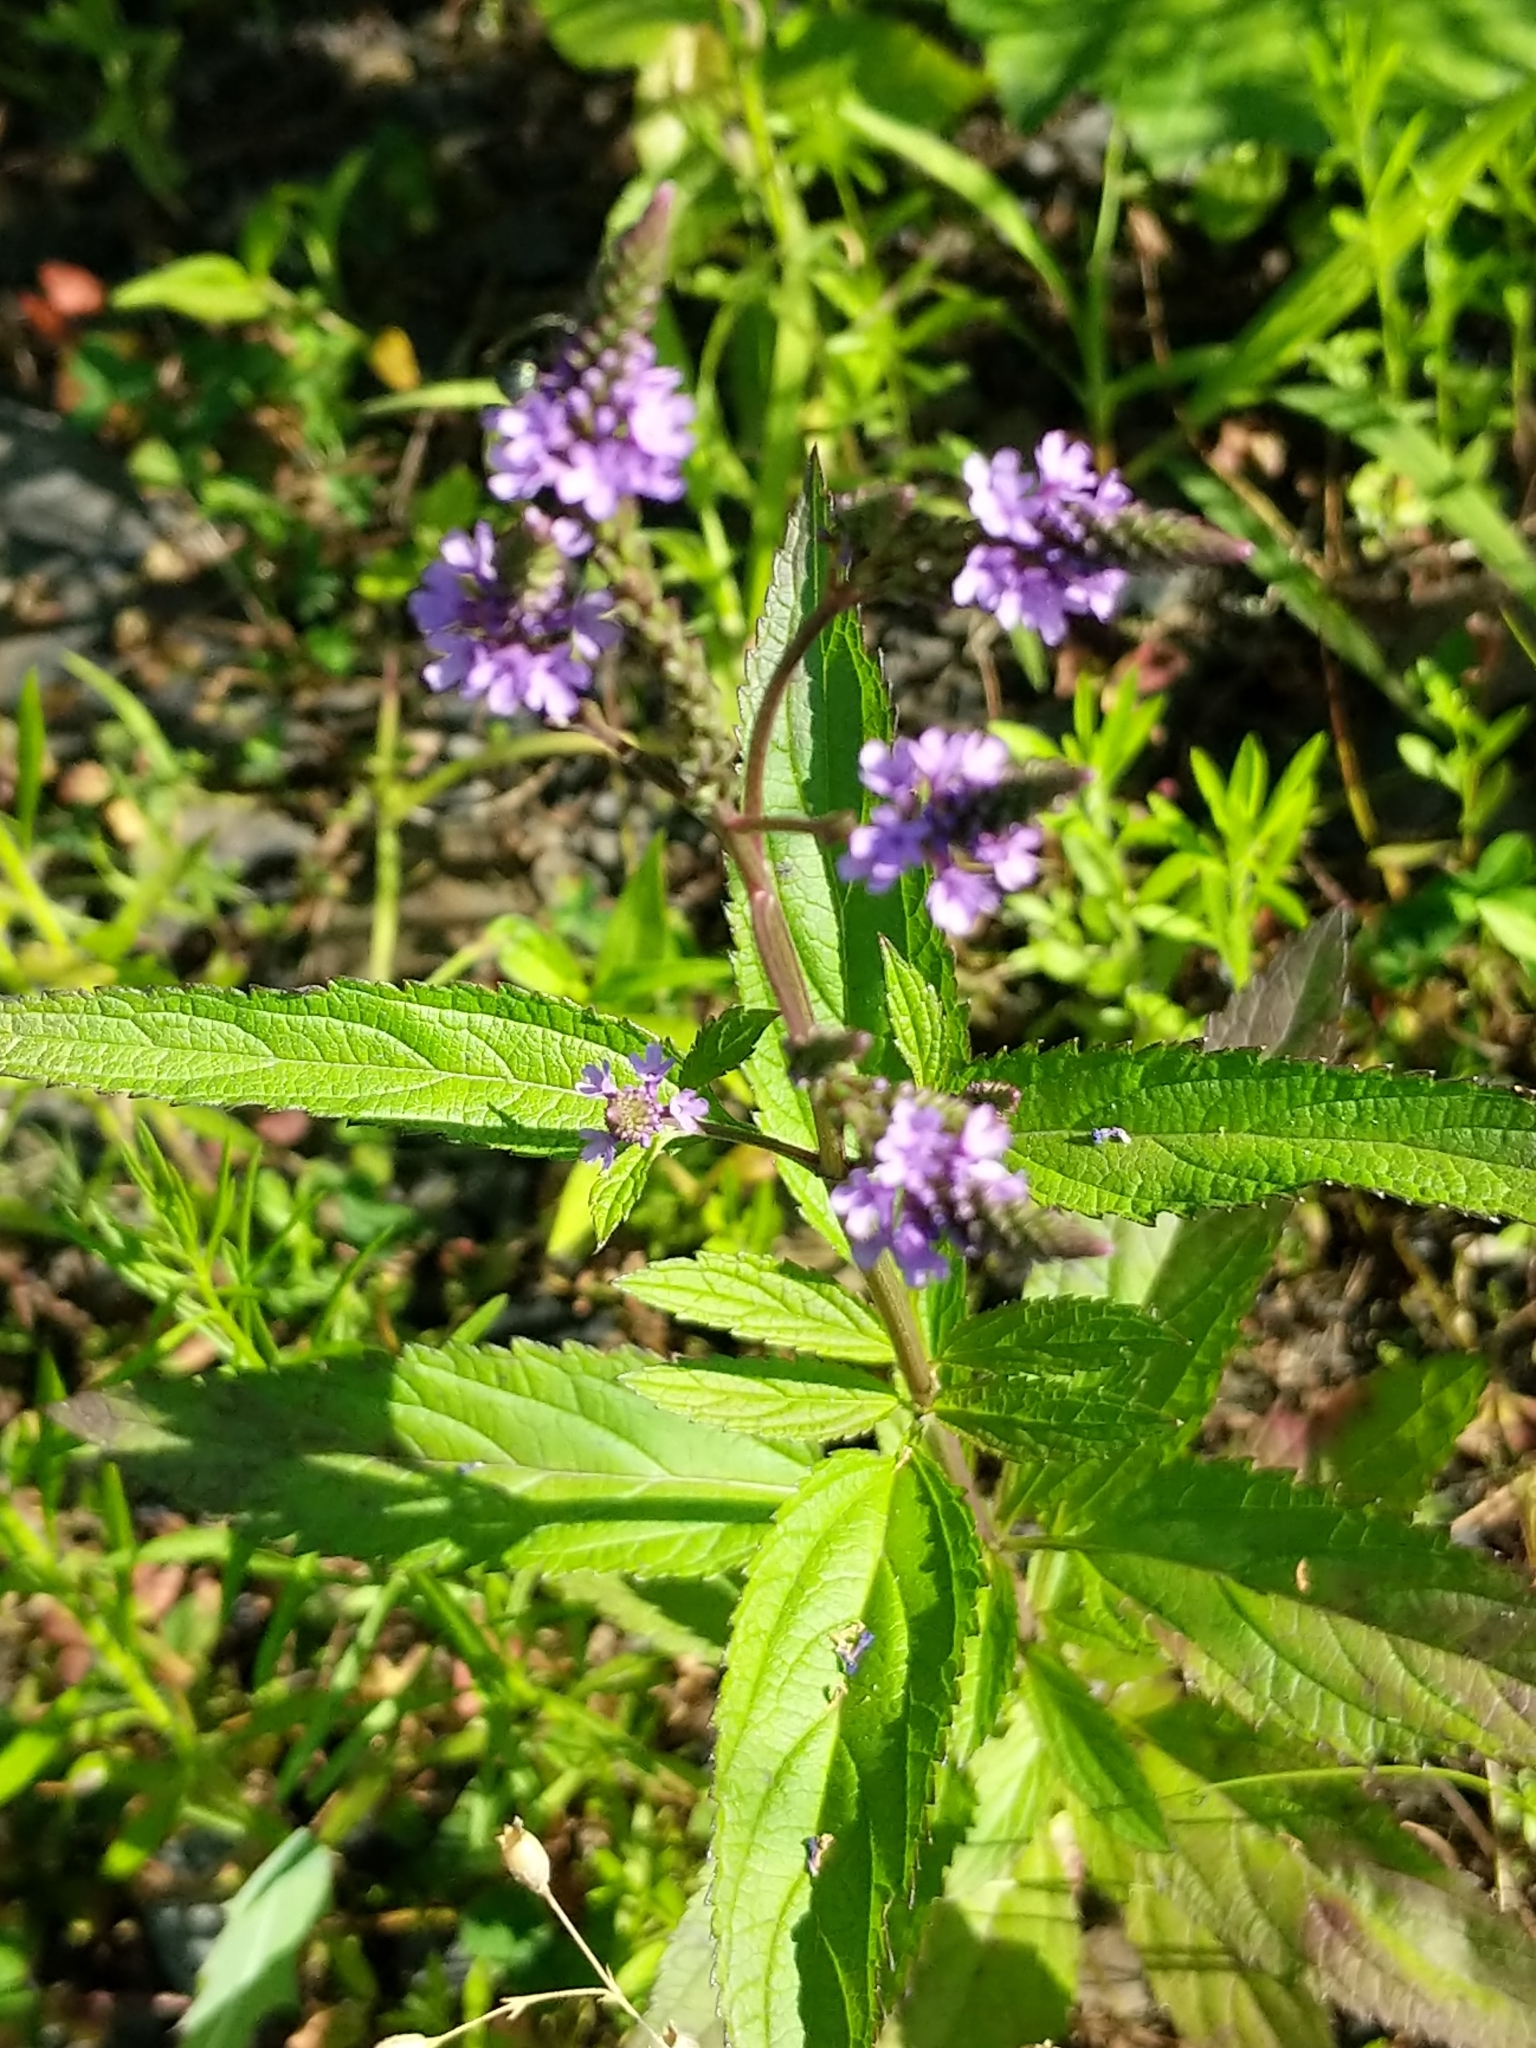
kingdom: Plantae
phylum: Tracheophyta
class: Magnoliopsida
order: Lamiales
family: Verbenaceae
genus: Verbena
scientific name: Verbena hastata
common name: American blue vervain
